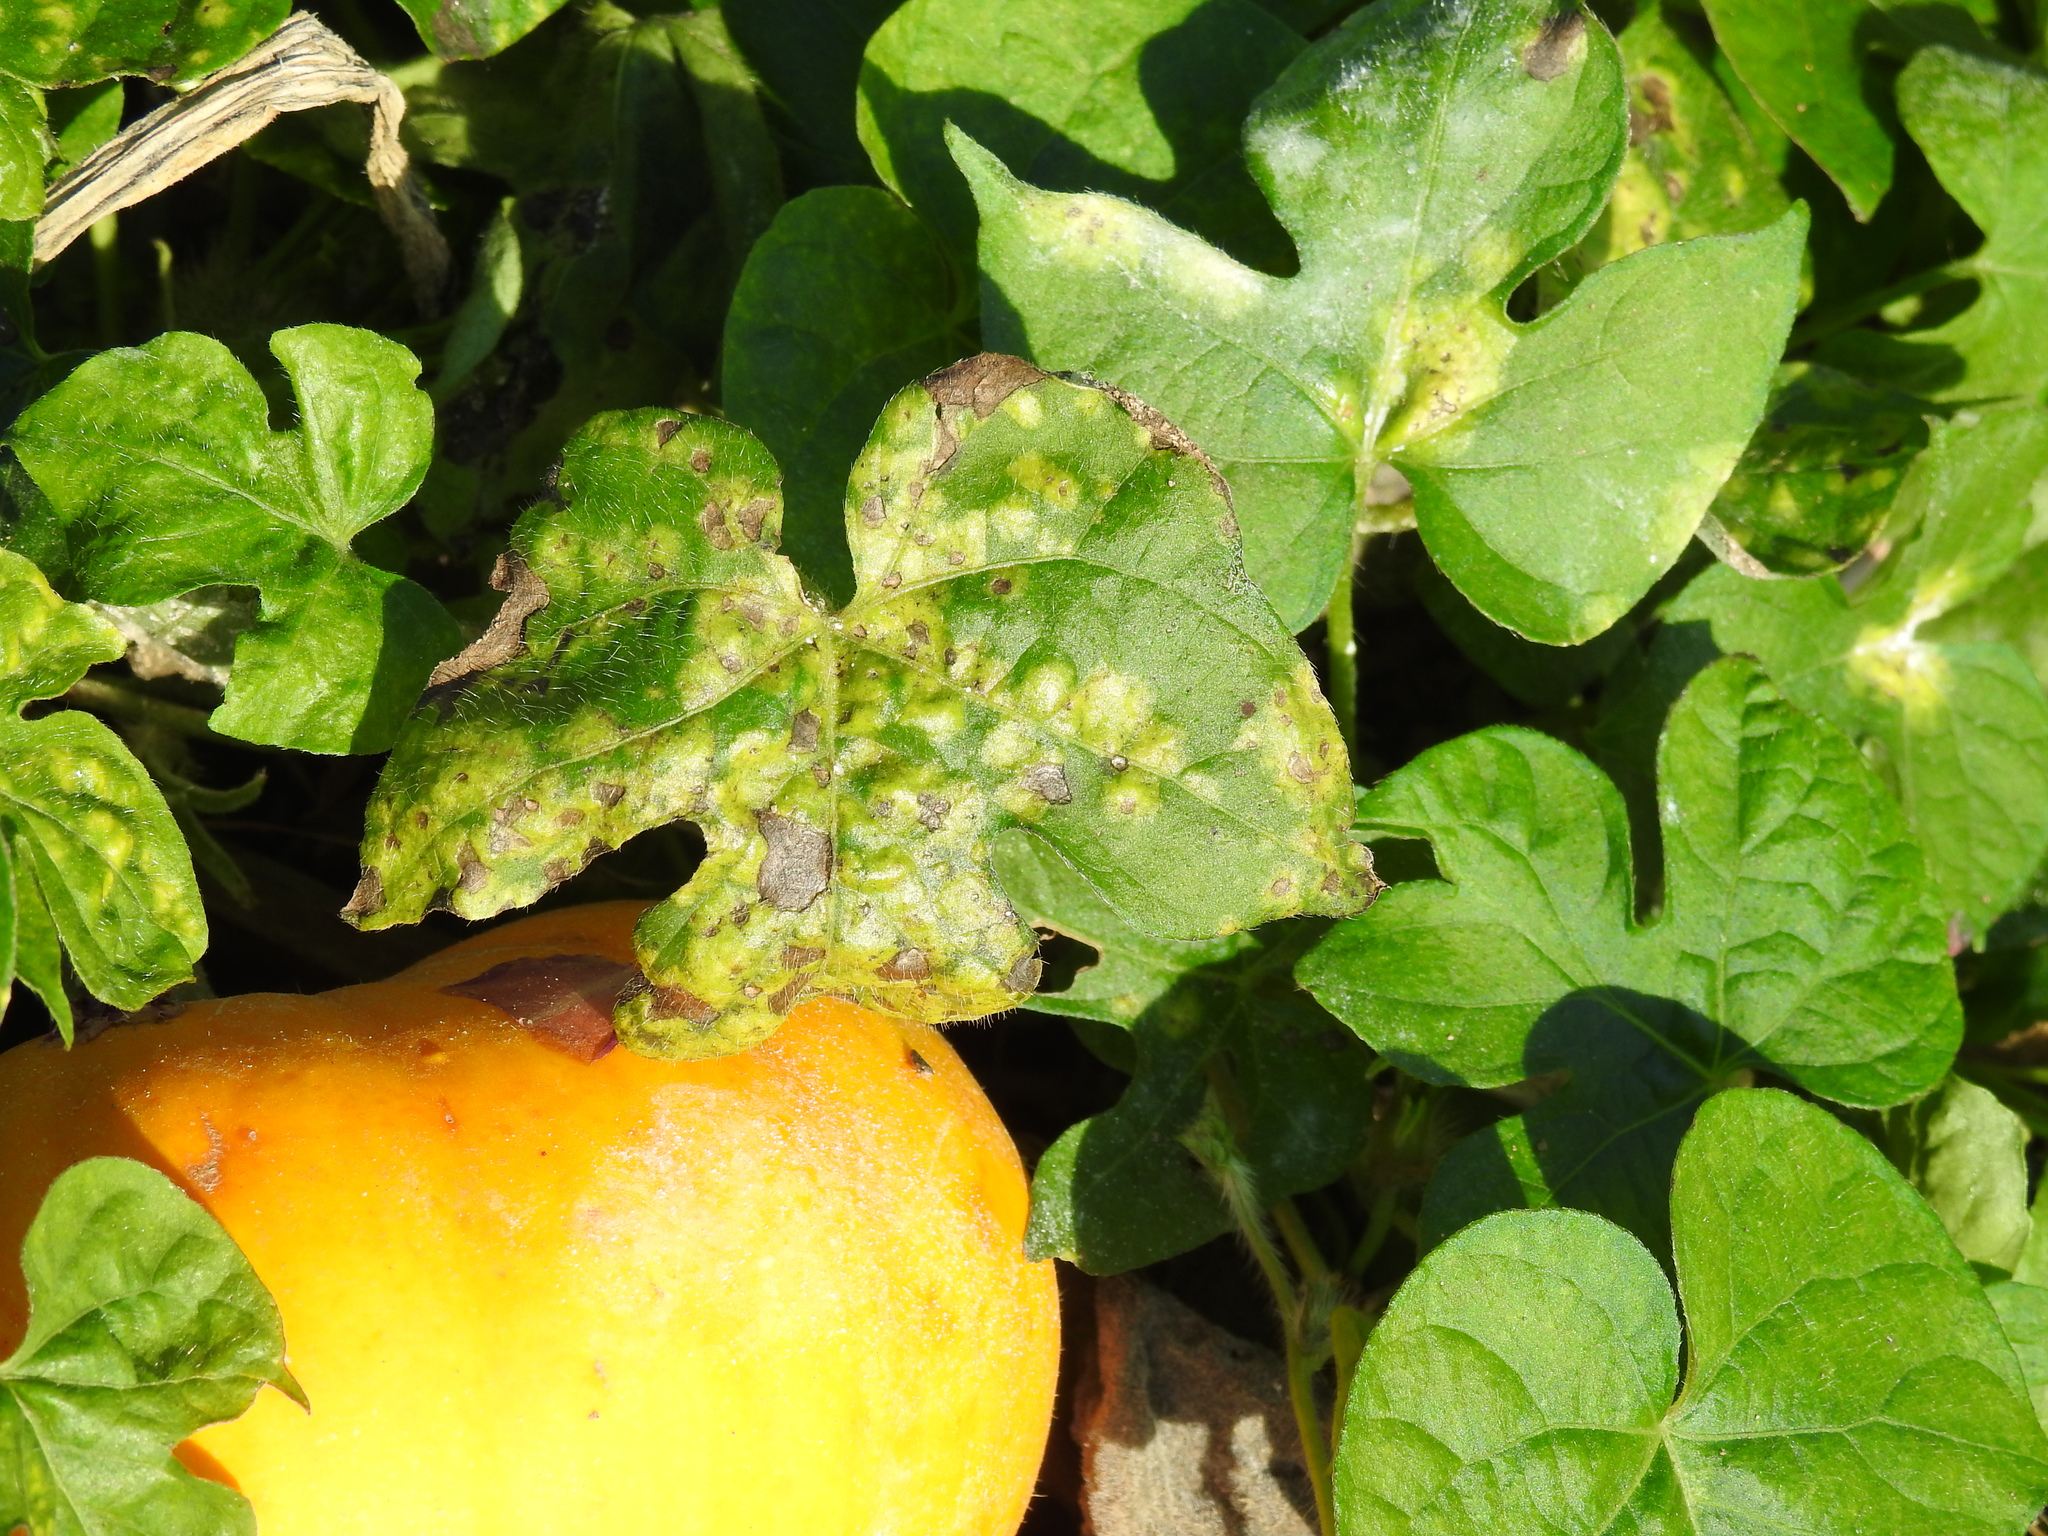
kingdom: Chromista
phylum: Oomycota
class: Peronosporea
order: Albuginales
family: Albuginaceae
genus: Albugo
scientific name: Albugo ipomoeae-panduratae
